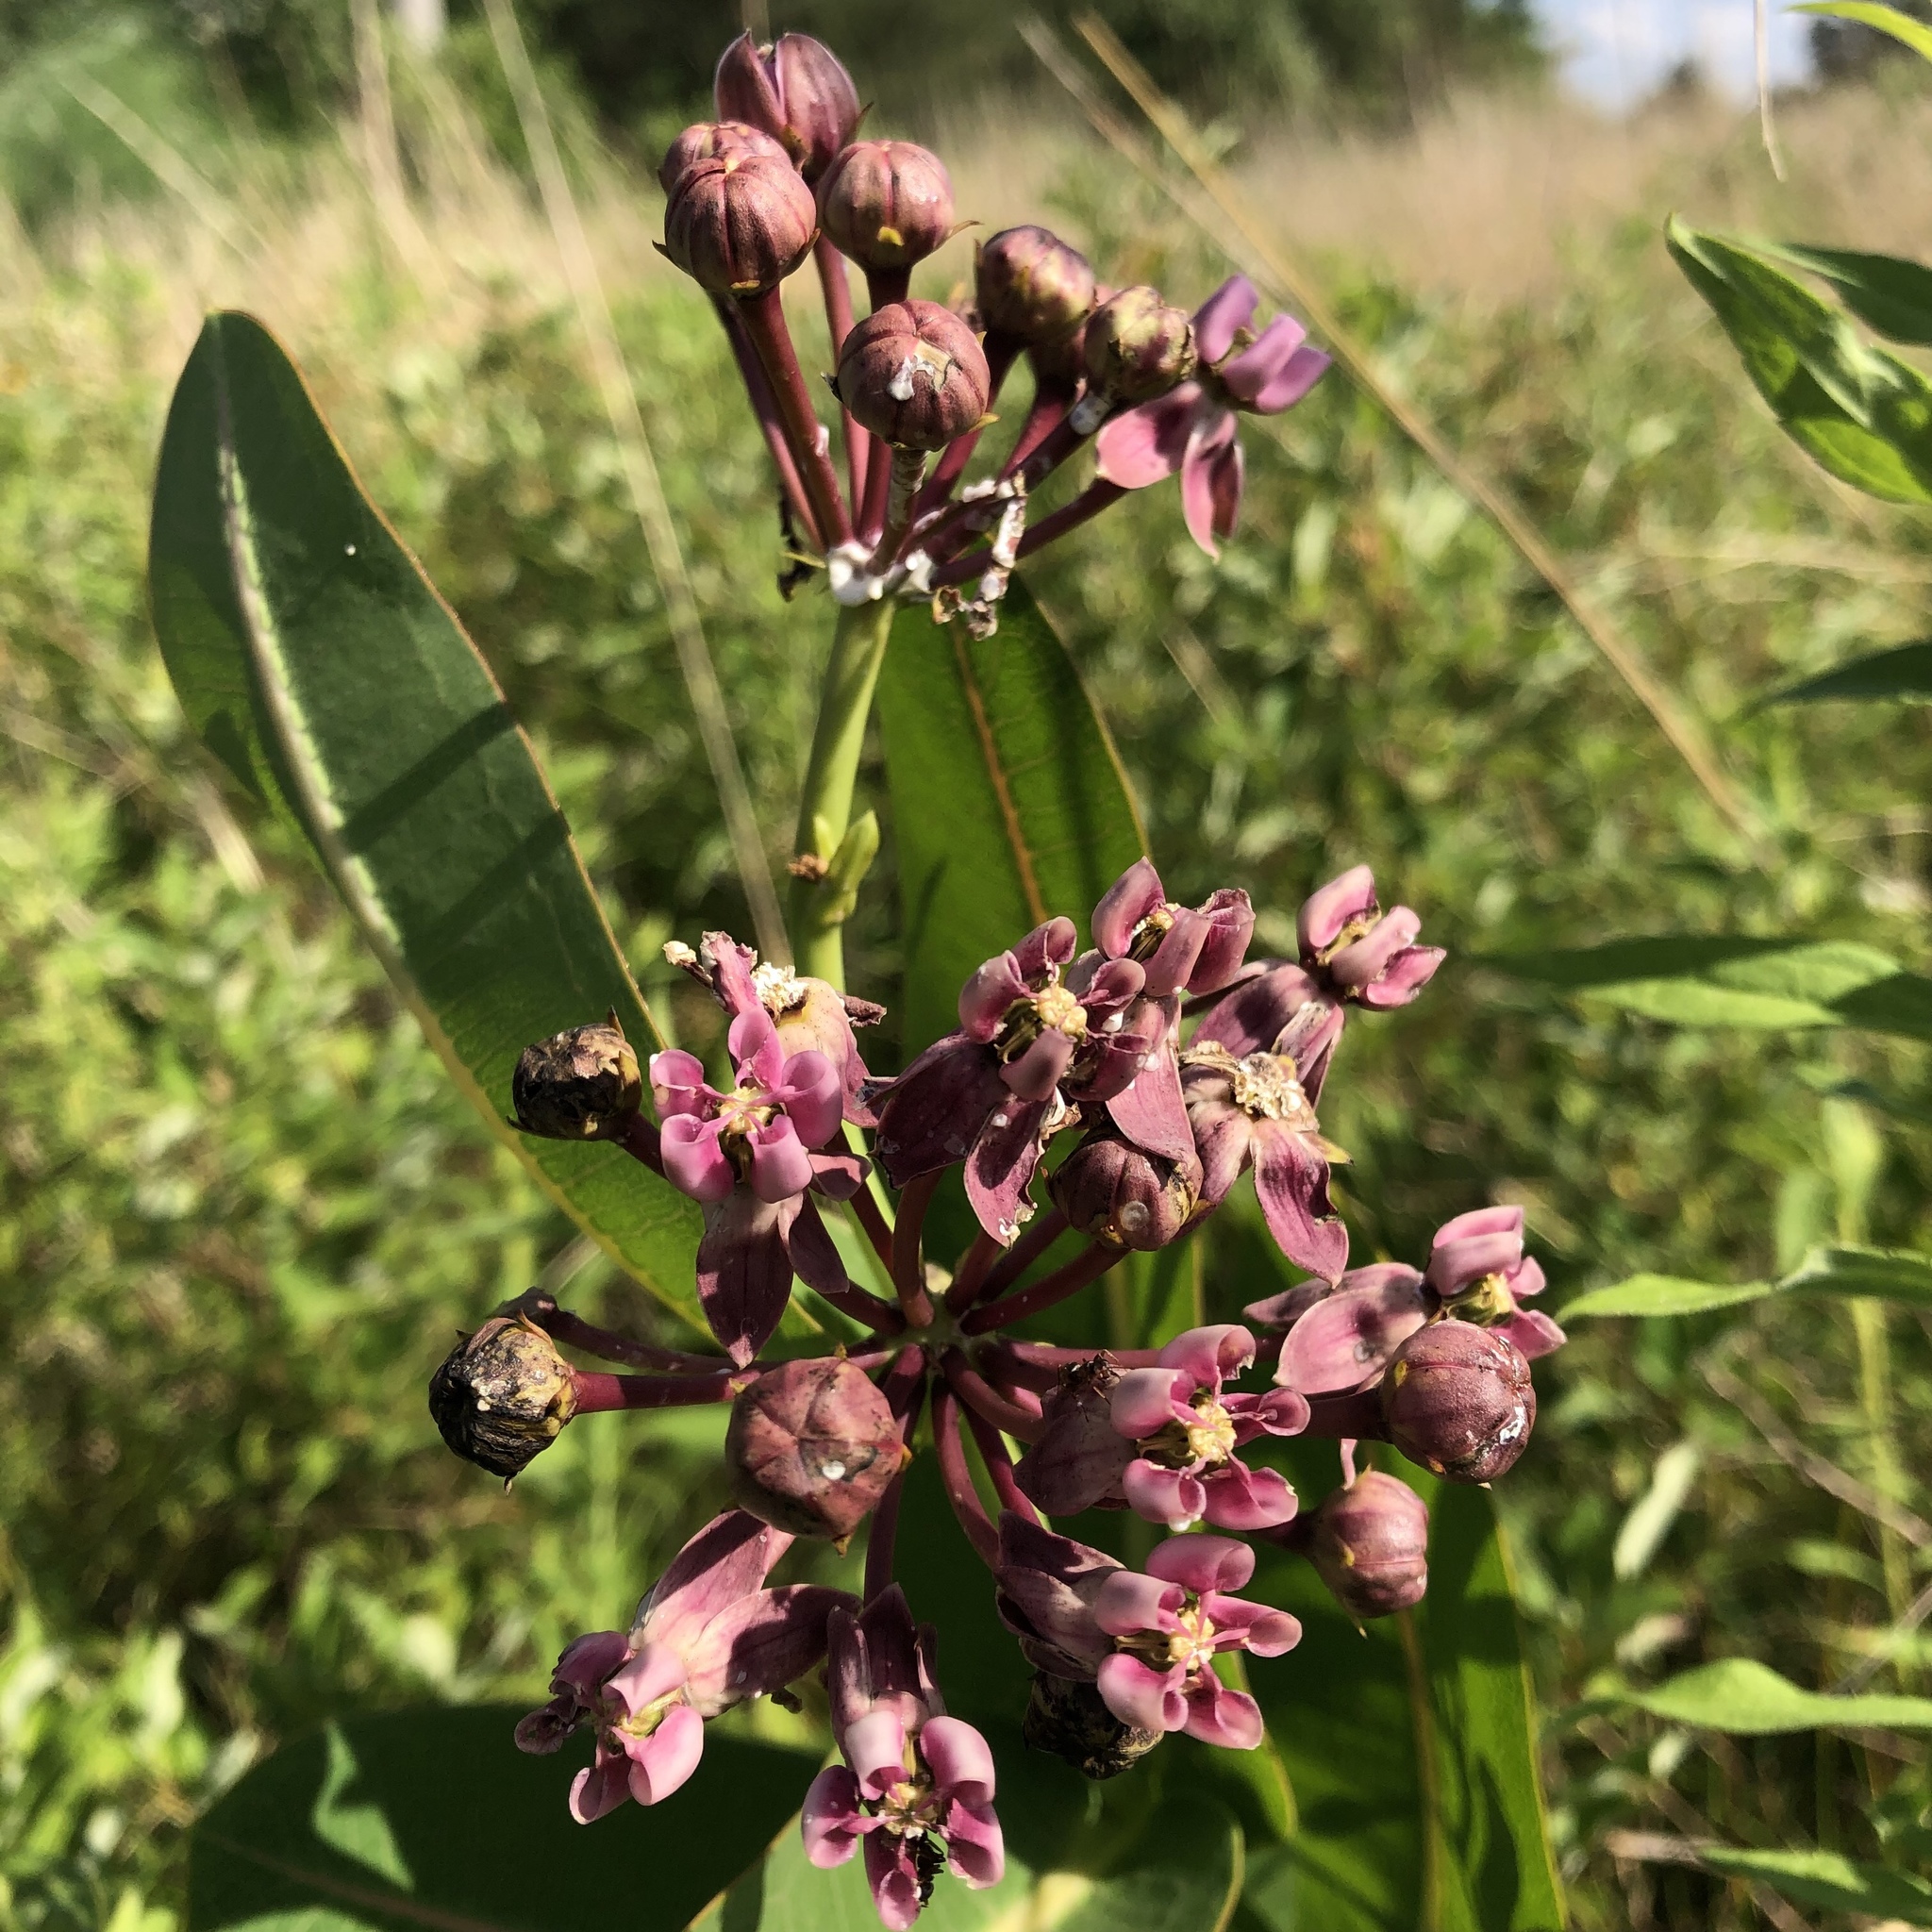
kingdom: Plantae
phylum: Tracheophyta
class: Magnoliopsida
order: Gentianales
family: Apocynaceae
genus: Asclepias
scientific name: Asclepias sullivantii
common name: Prairie milkweed
